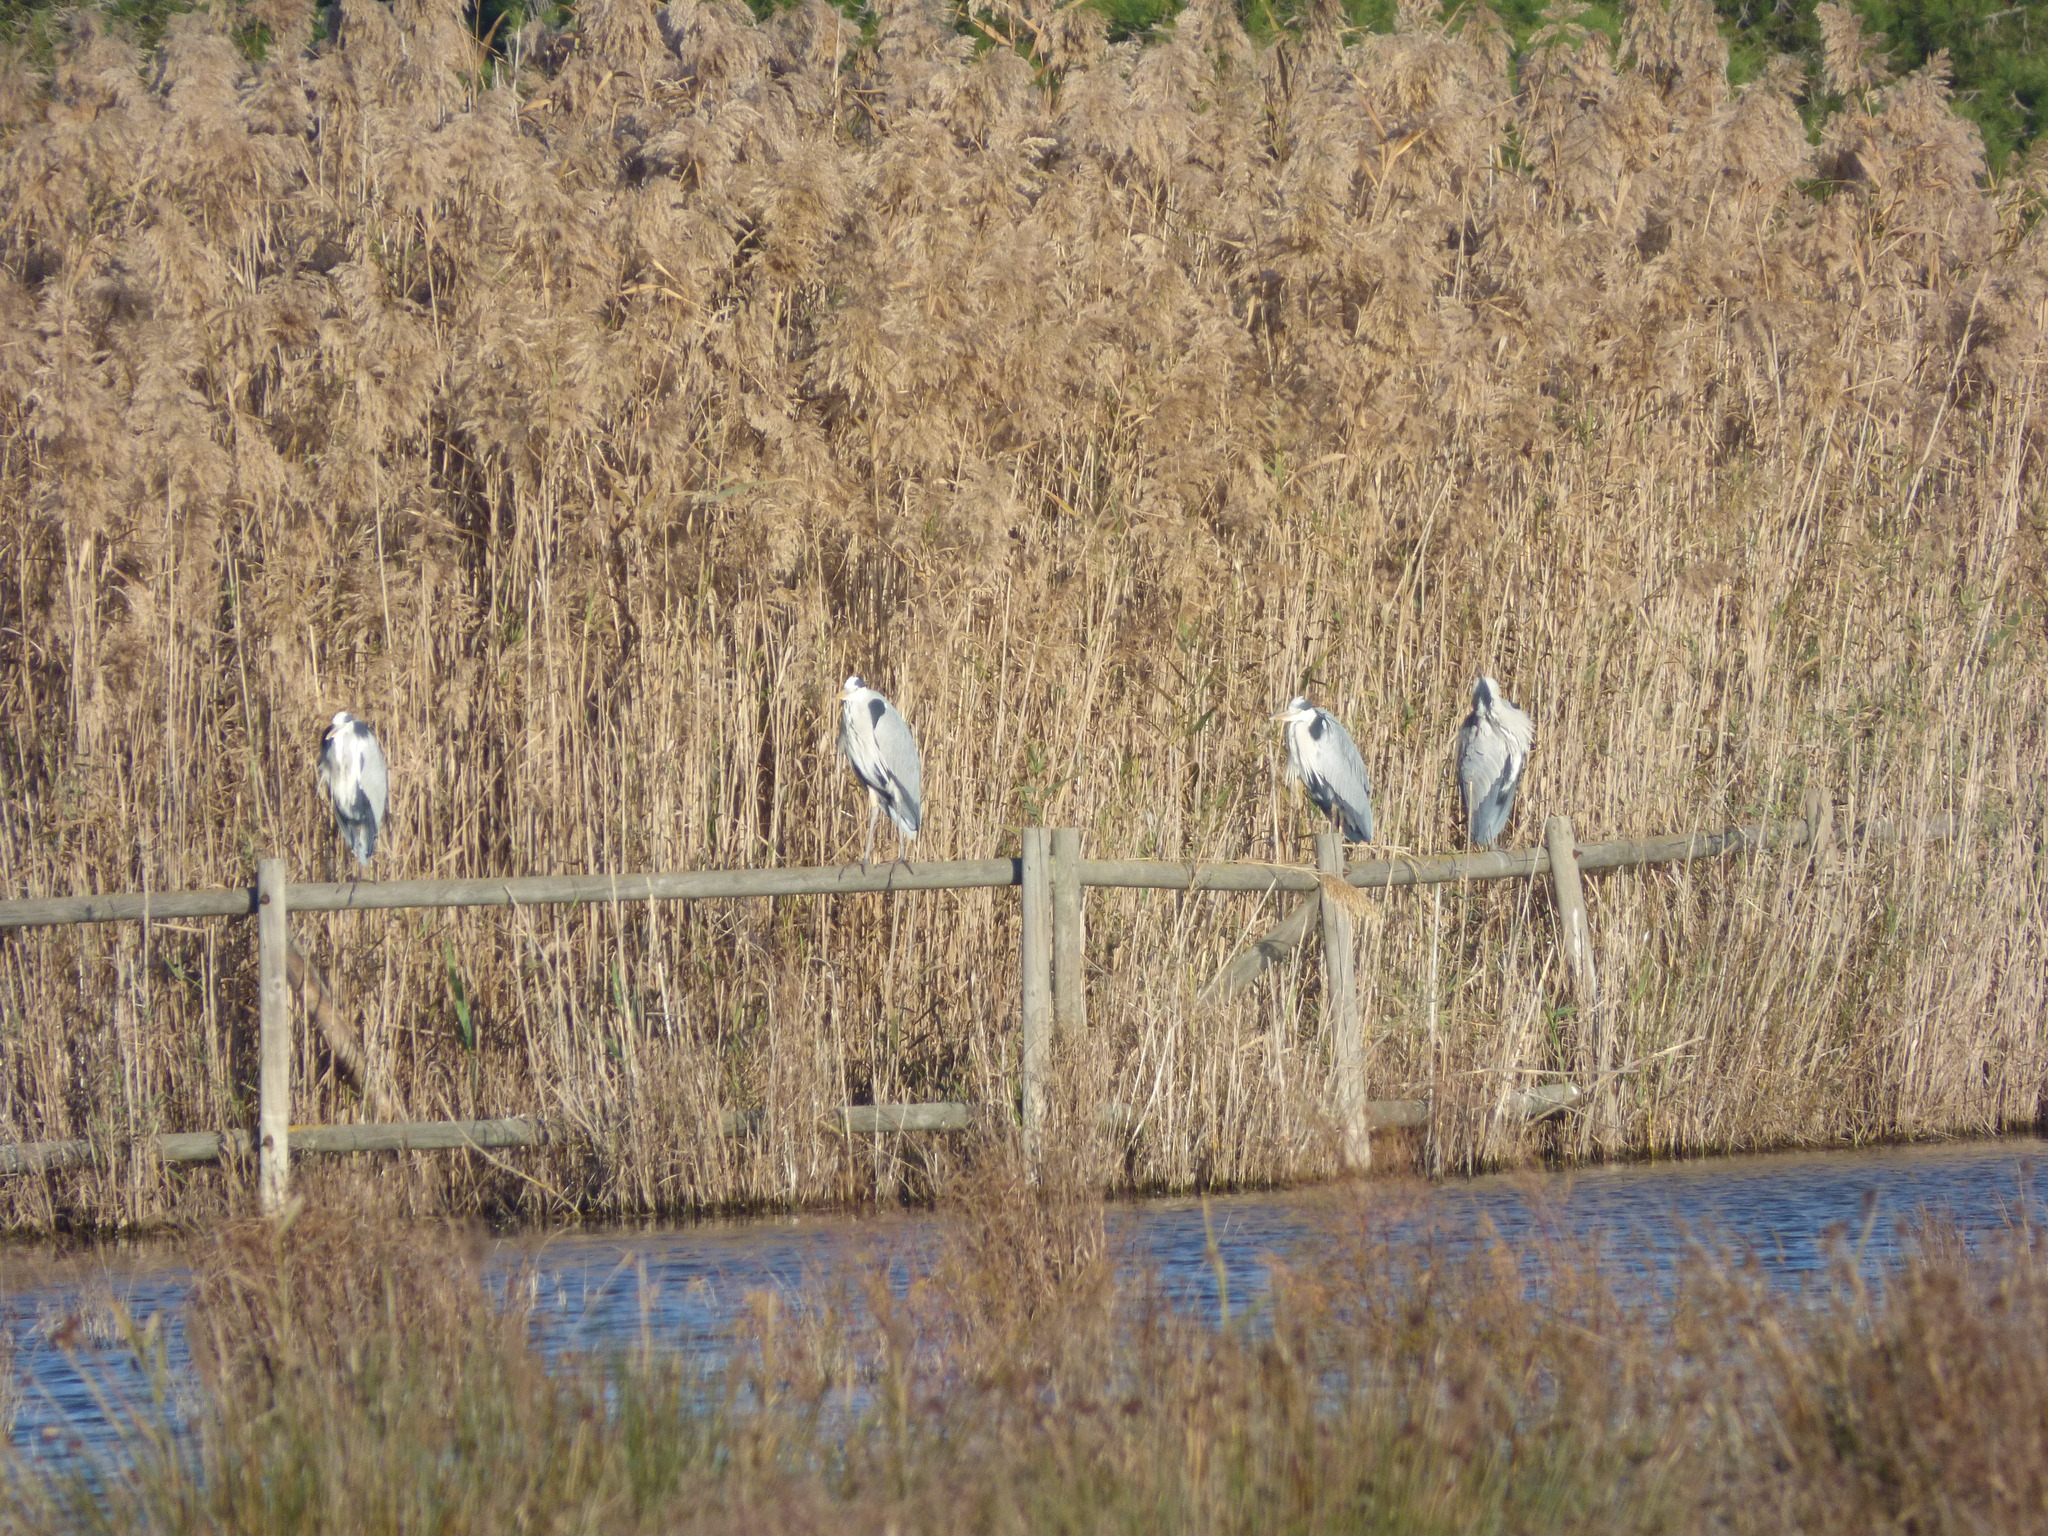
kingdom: Animalia
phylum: Chordata
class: Aves
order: Pelecaniformes
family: Ardeidae
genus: Ardea
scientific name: Ardea cinerea
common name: Grey heron
